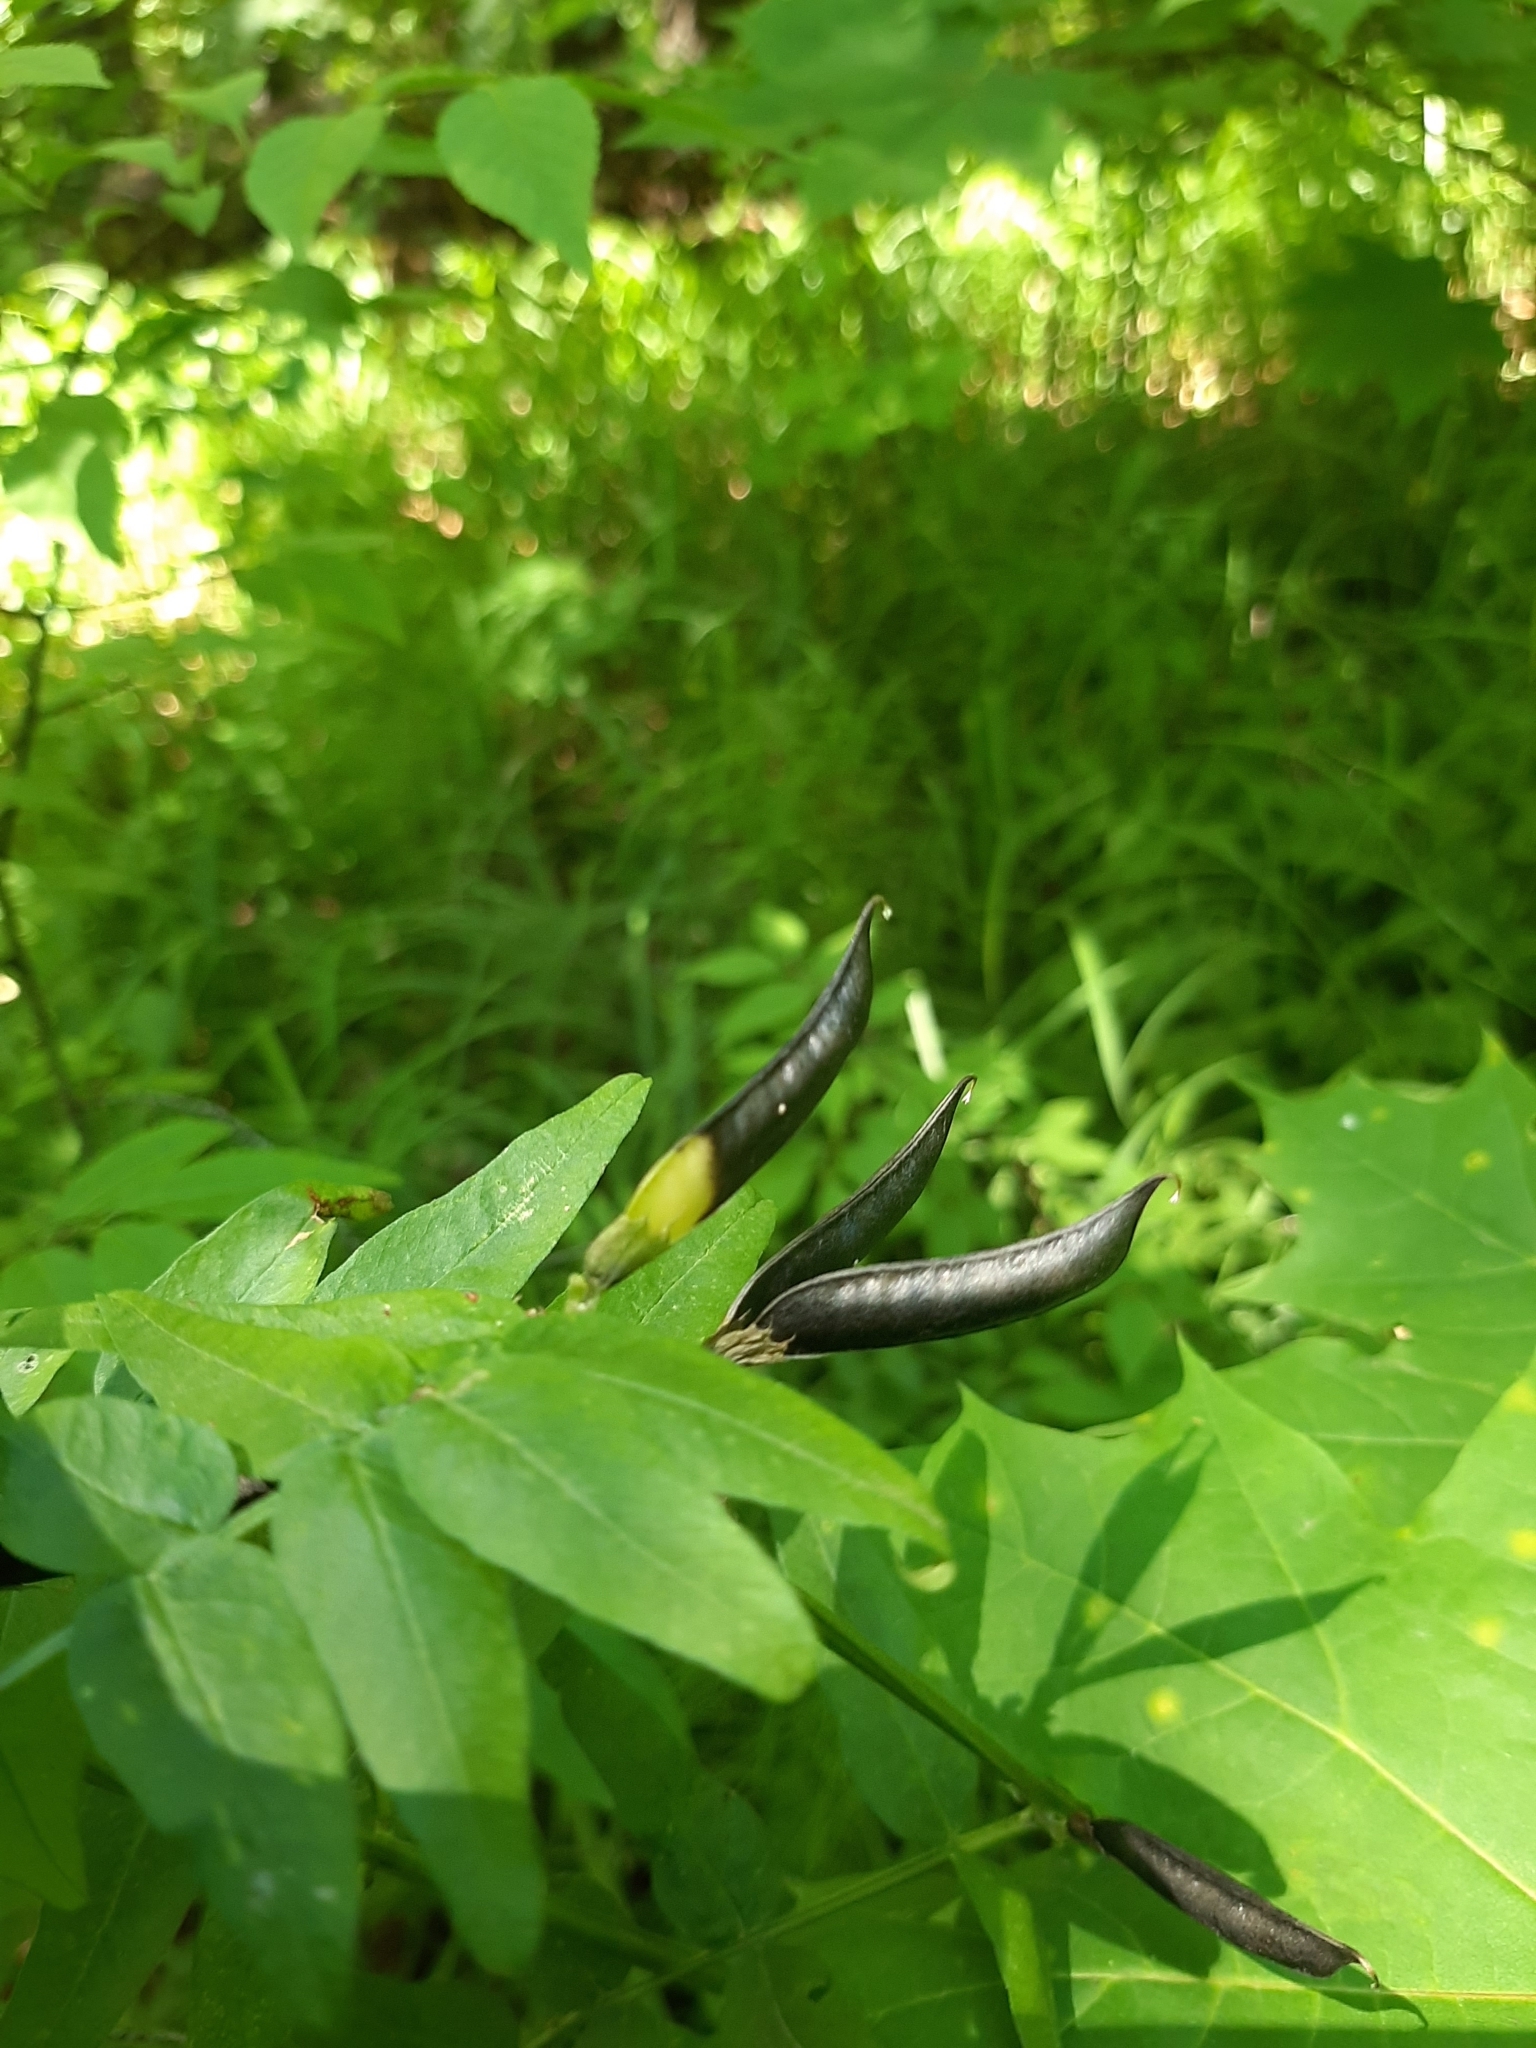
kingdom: Plantae
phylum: Tracheophyta
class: Magnoliopsida
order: Fabales
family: Fabaceae
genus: Vicia
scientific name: Vicia sepium
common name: Bush vetch
